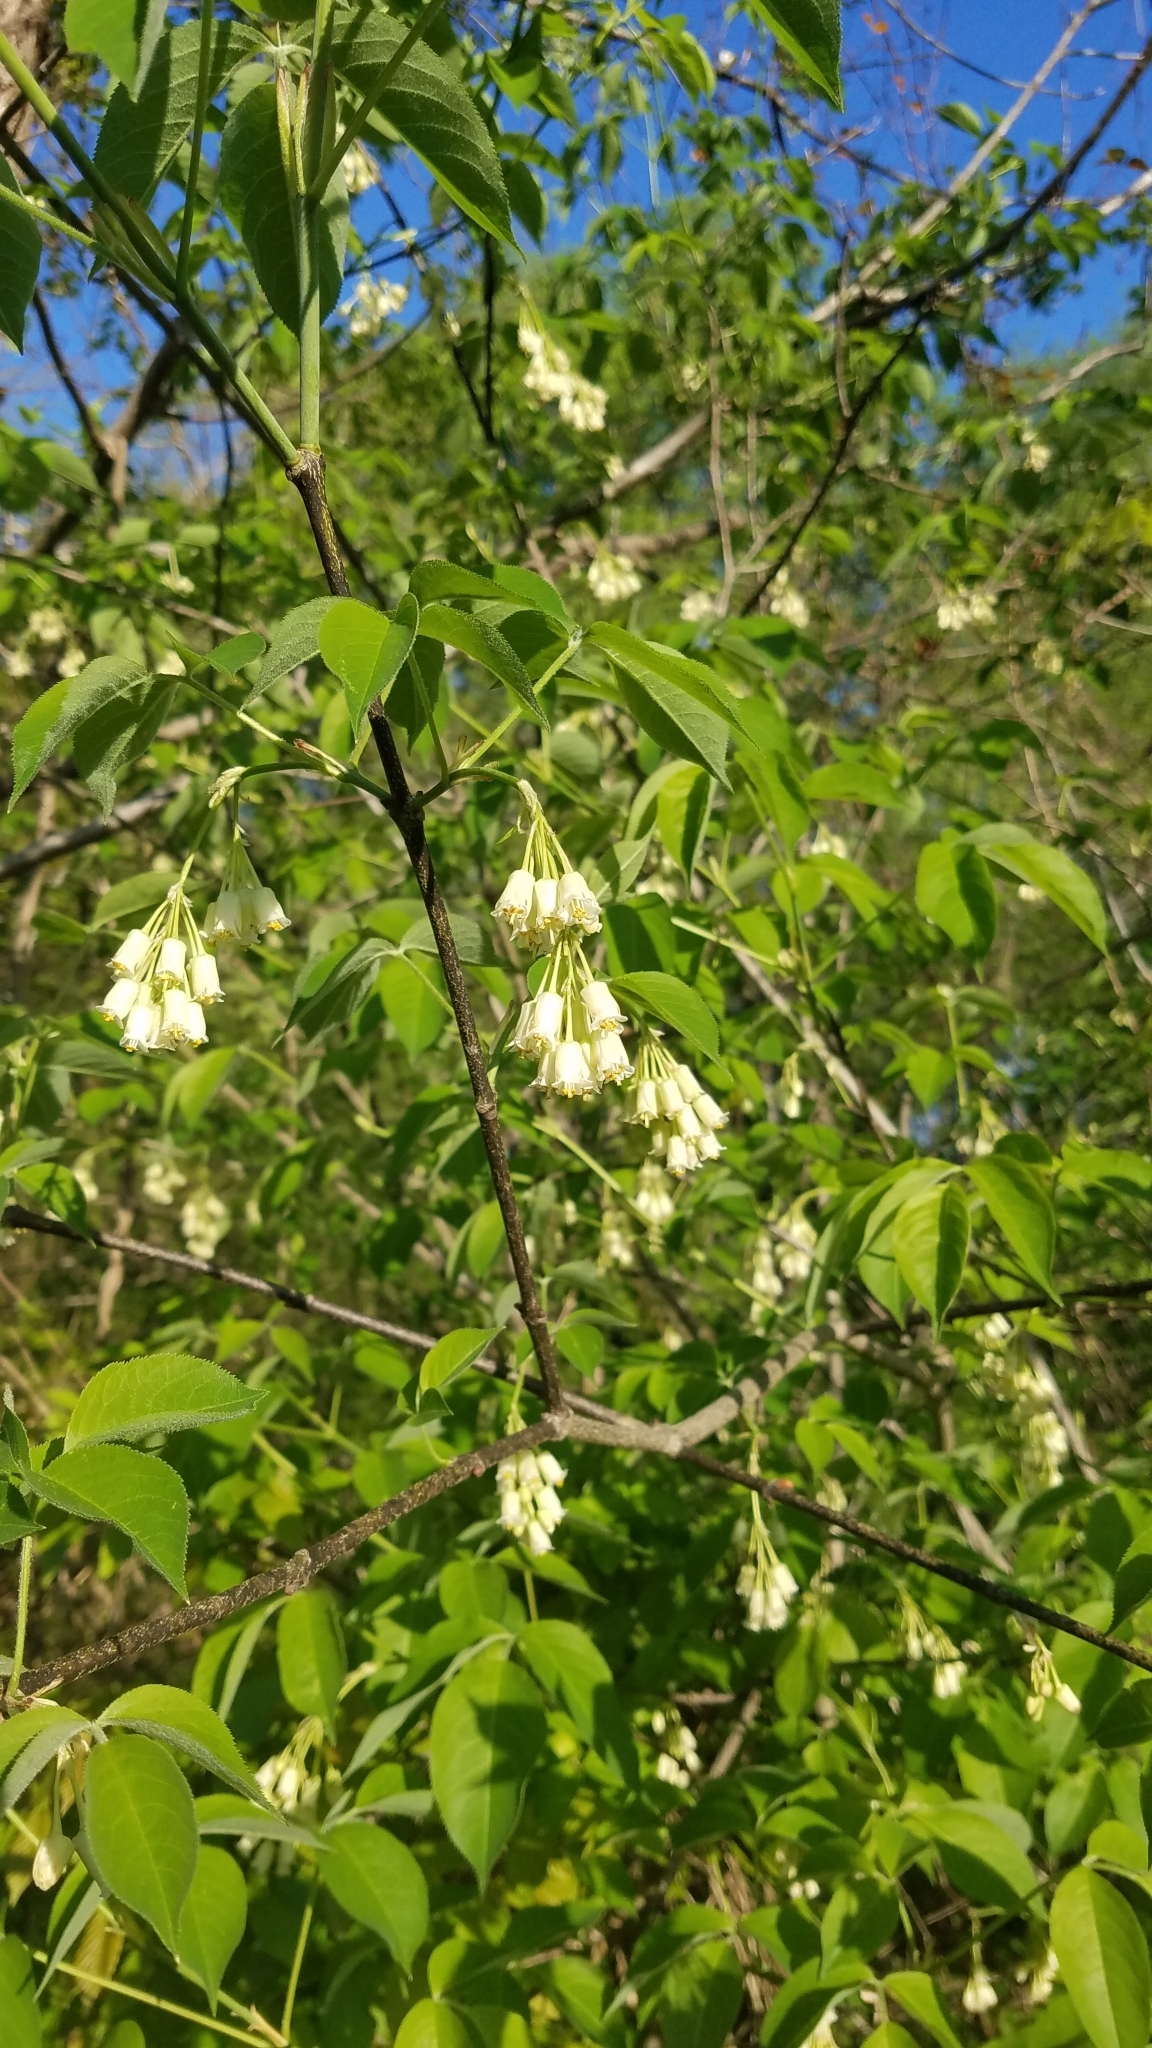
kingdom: Plantae
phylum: Tracheophyta
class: Magnoliopsida
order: Crossosomatales
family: Staphyleaceae
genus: Staphylea
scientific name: Staphylea trifolia
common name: American bladdernut
